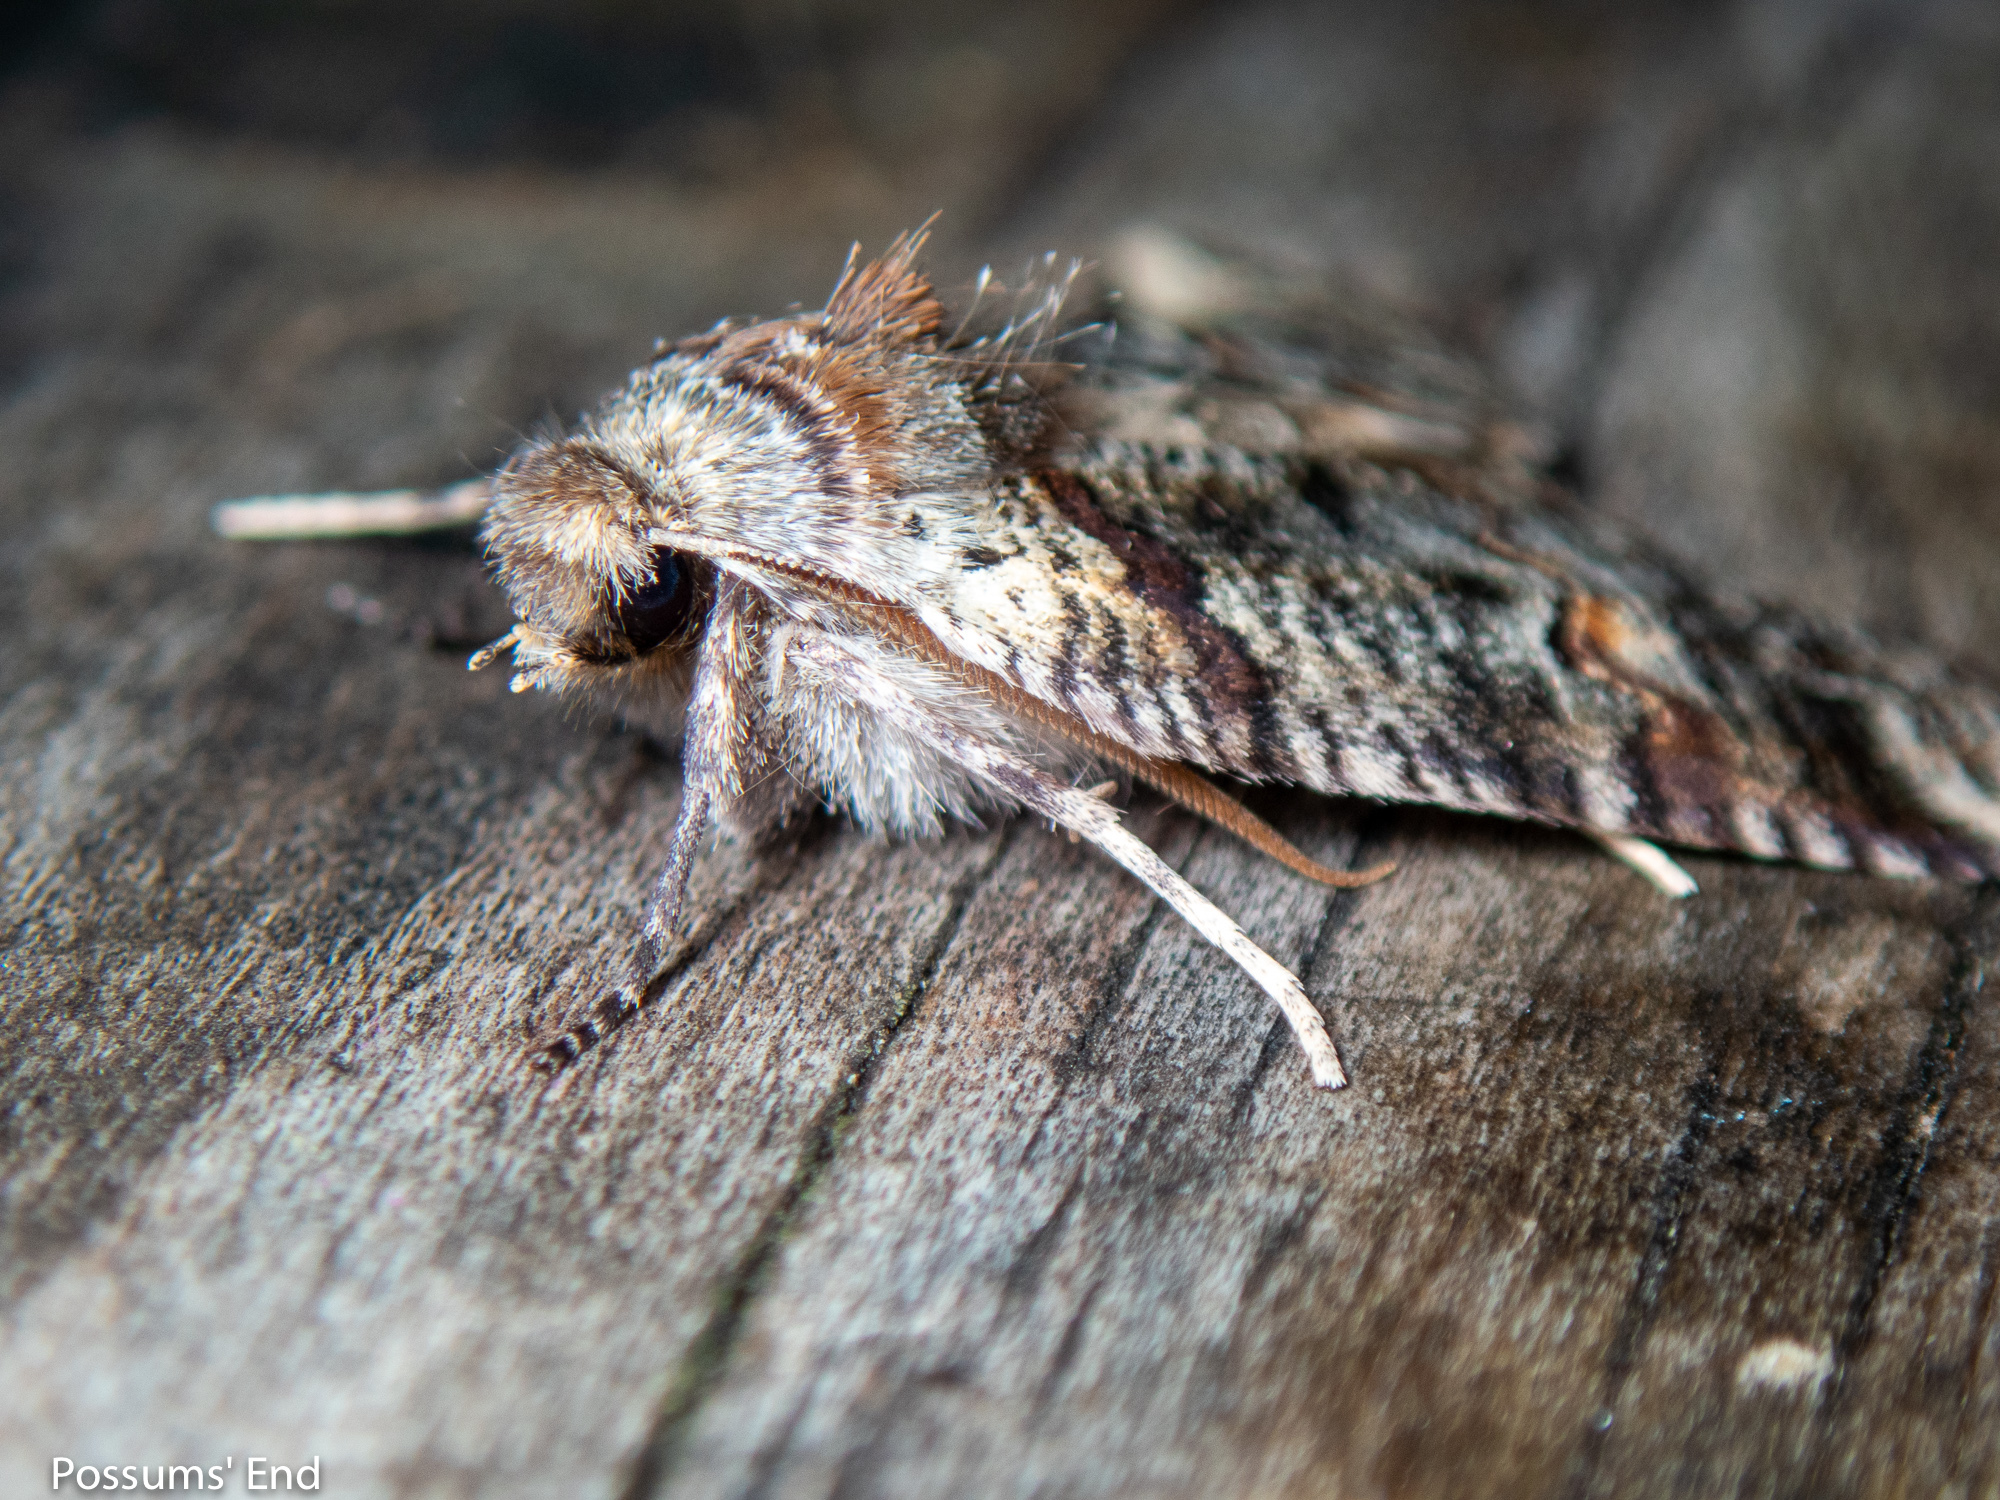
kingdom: Animalia
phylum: Arthropoda
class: Insecta
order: Lepidoptera
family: Geometridae
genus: Declana
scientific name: Declana
